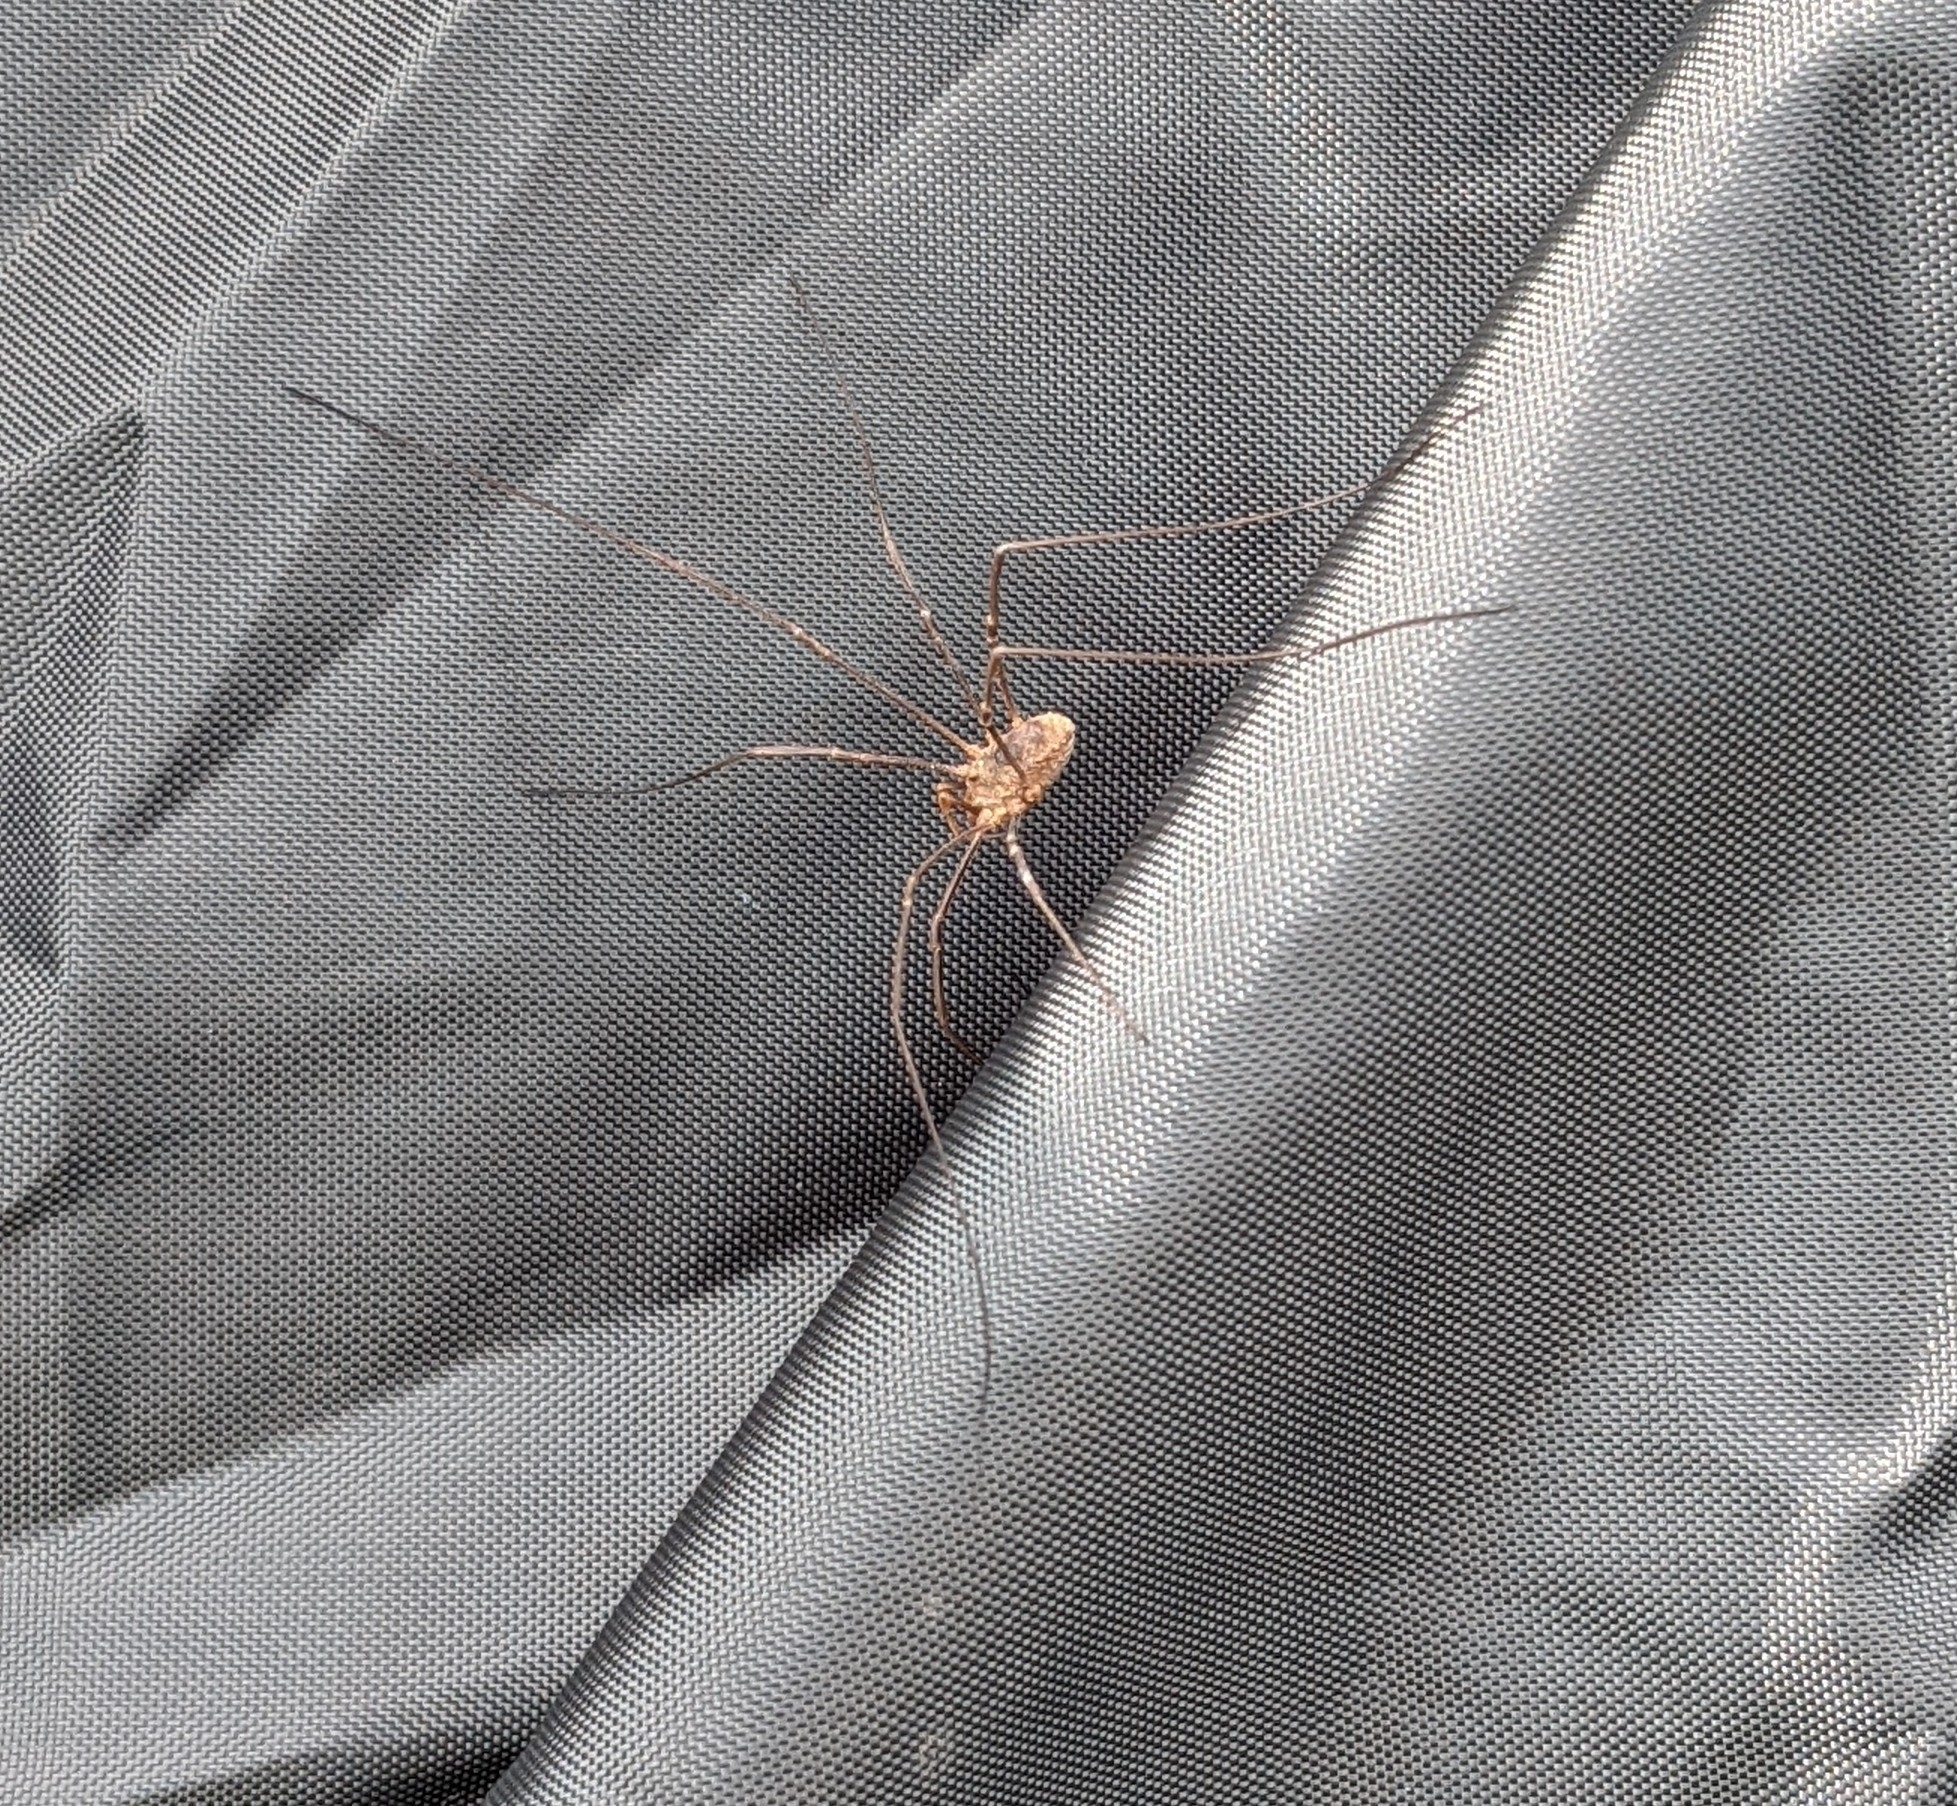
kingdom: Animalia
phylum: Arthropoda
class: Arachnida
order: Opiliones
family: Phalangiidae
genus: Phalangium
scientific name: Phalangium opilio
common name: Daddy longleg
